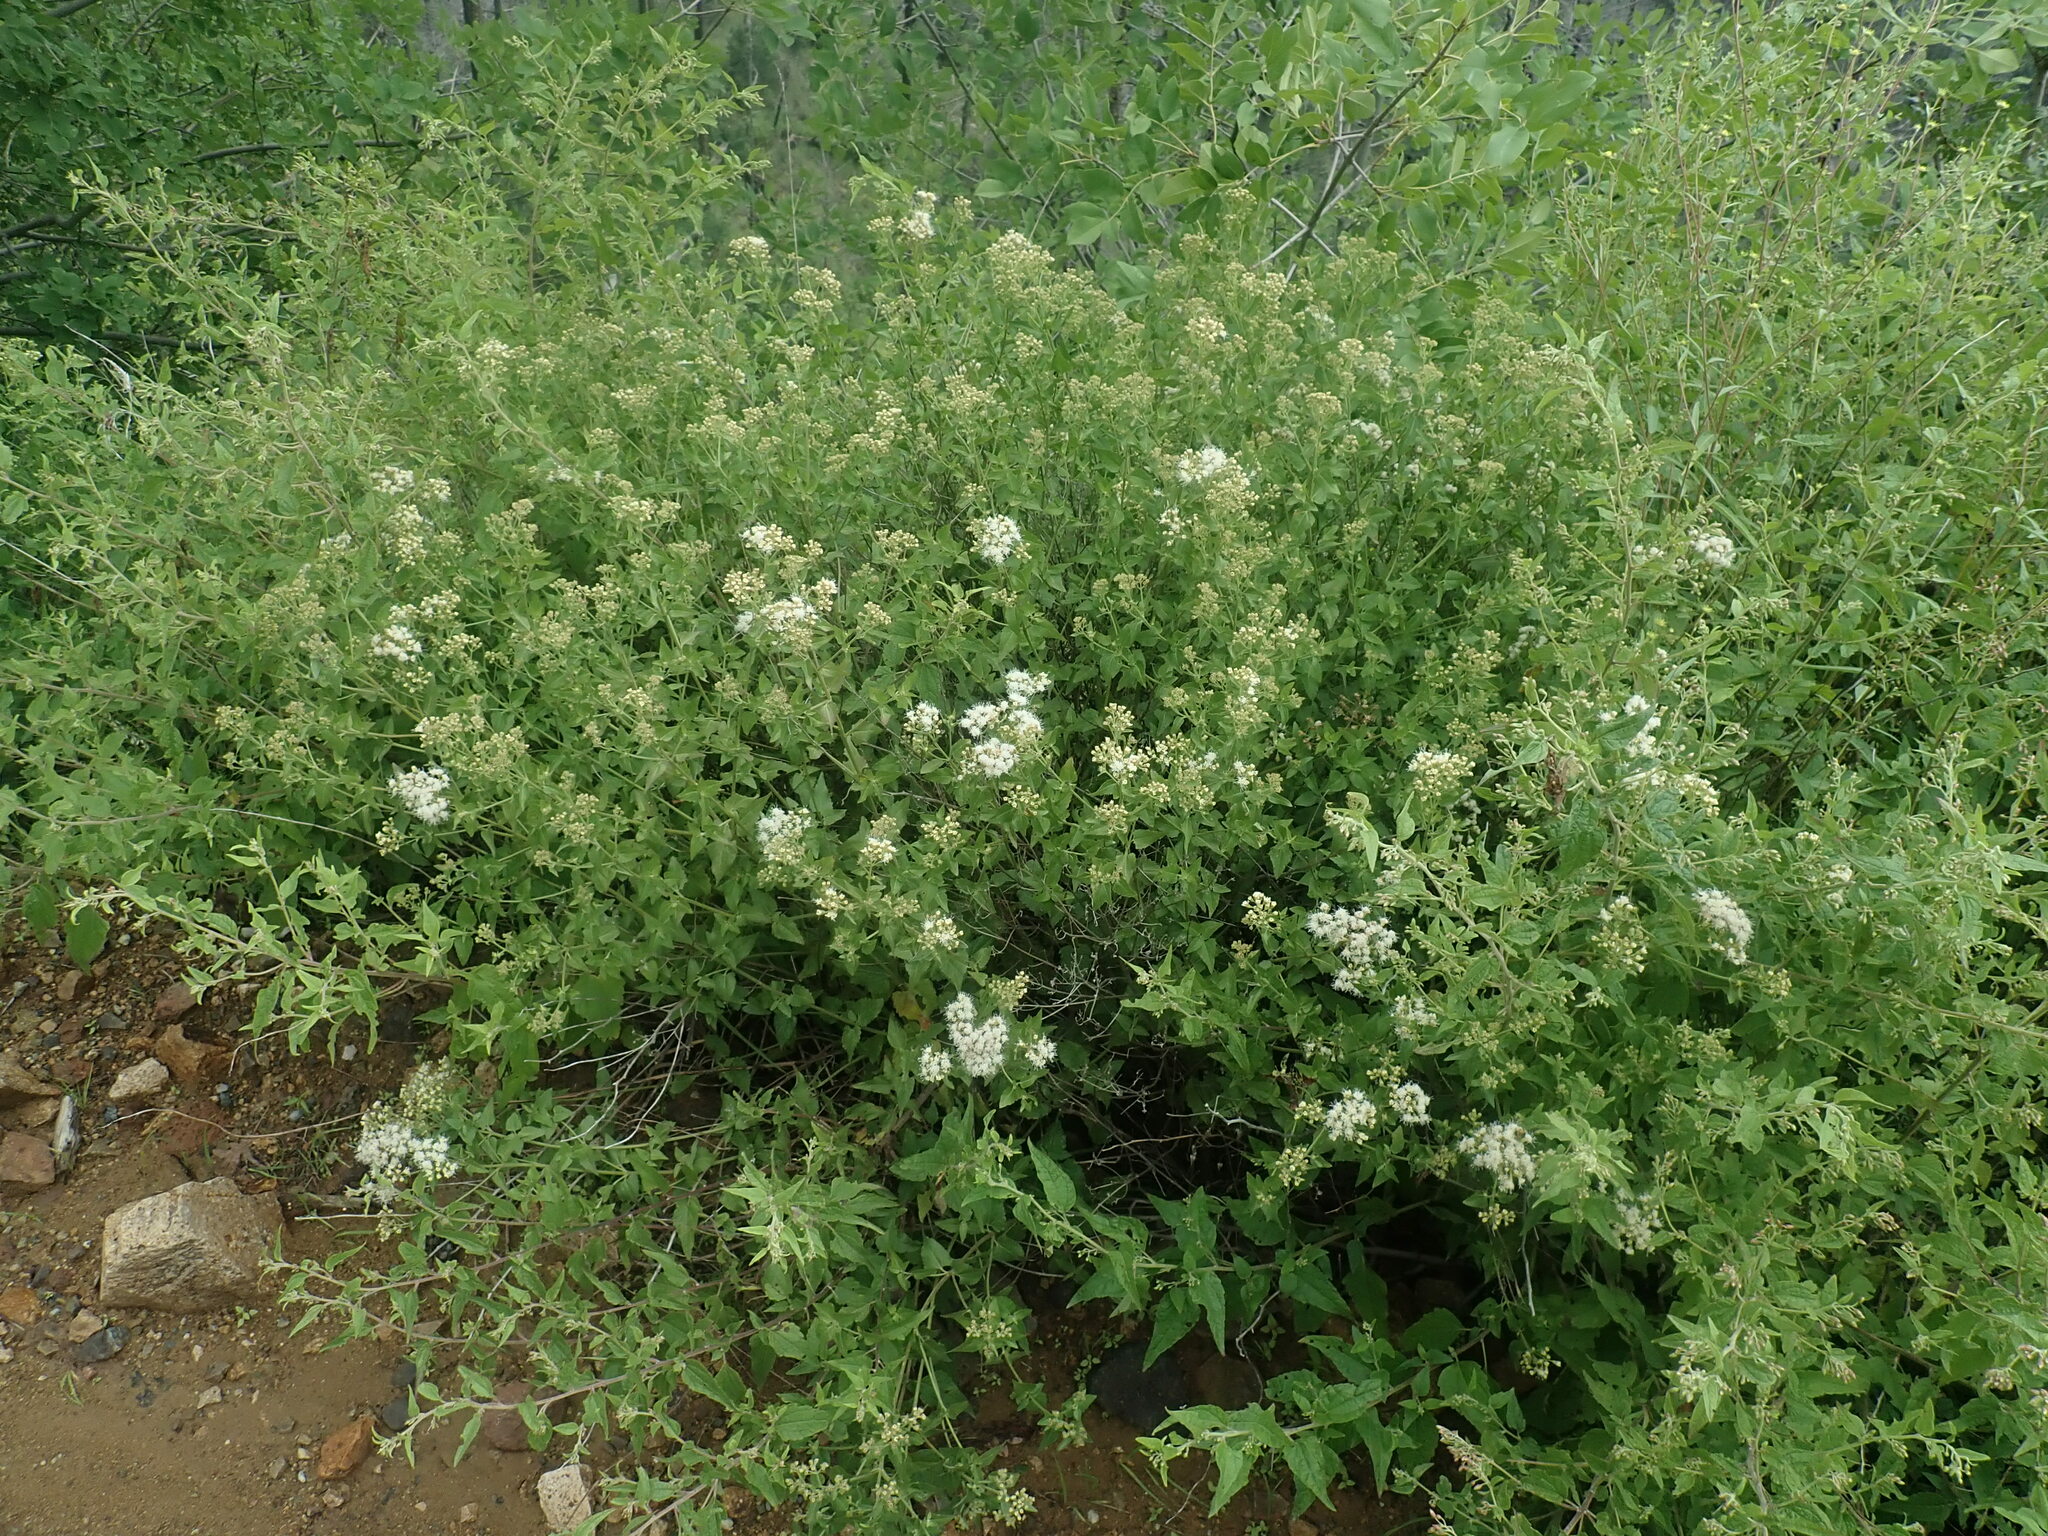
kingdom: Plantae
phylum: Tracheophyta
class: Magnoliopsida
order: Asterales
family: Asteraceae
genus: Ageratina
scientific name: Ageratina herbacea
